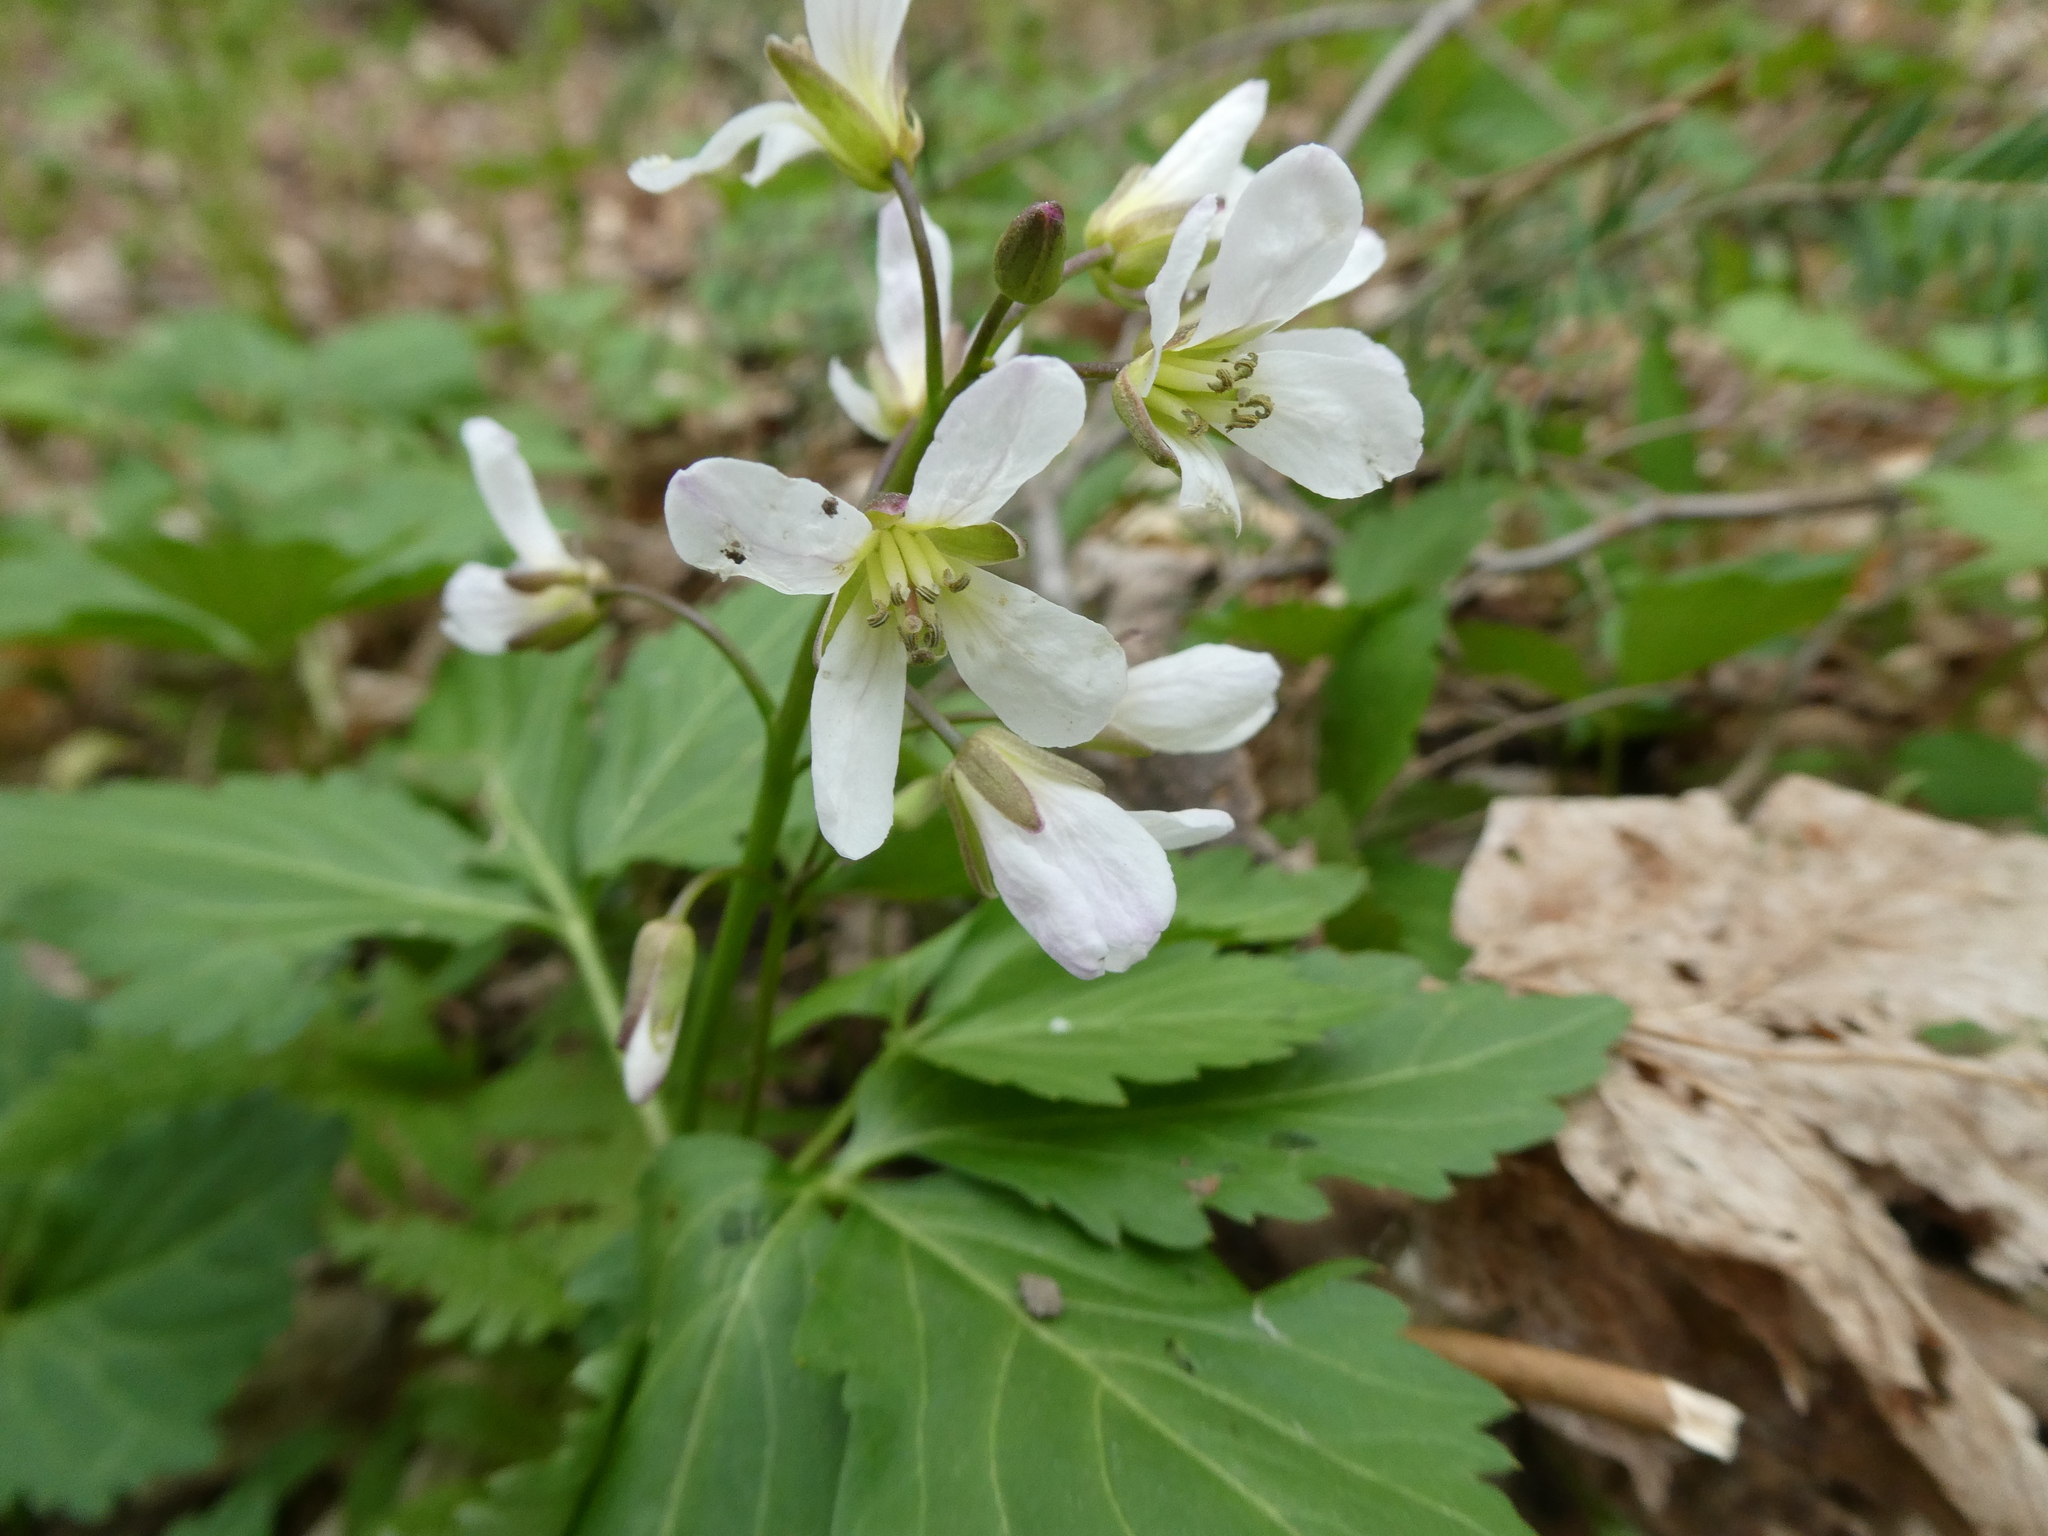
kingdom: Plantae
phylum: Tracheophyta
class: Magnoliopsida
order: Brassicales
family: Brassicaceae
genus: Cardamine
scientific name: Cardamine diphylla
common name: Broad-leaved toothwort
